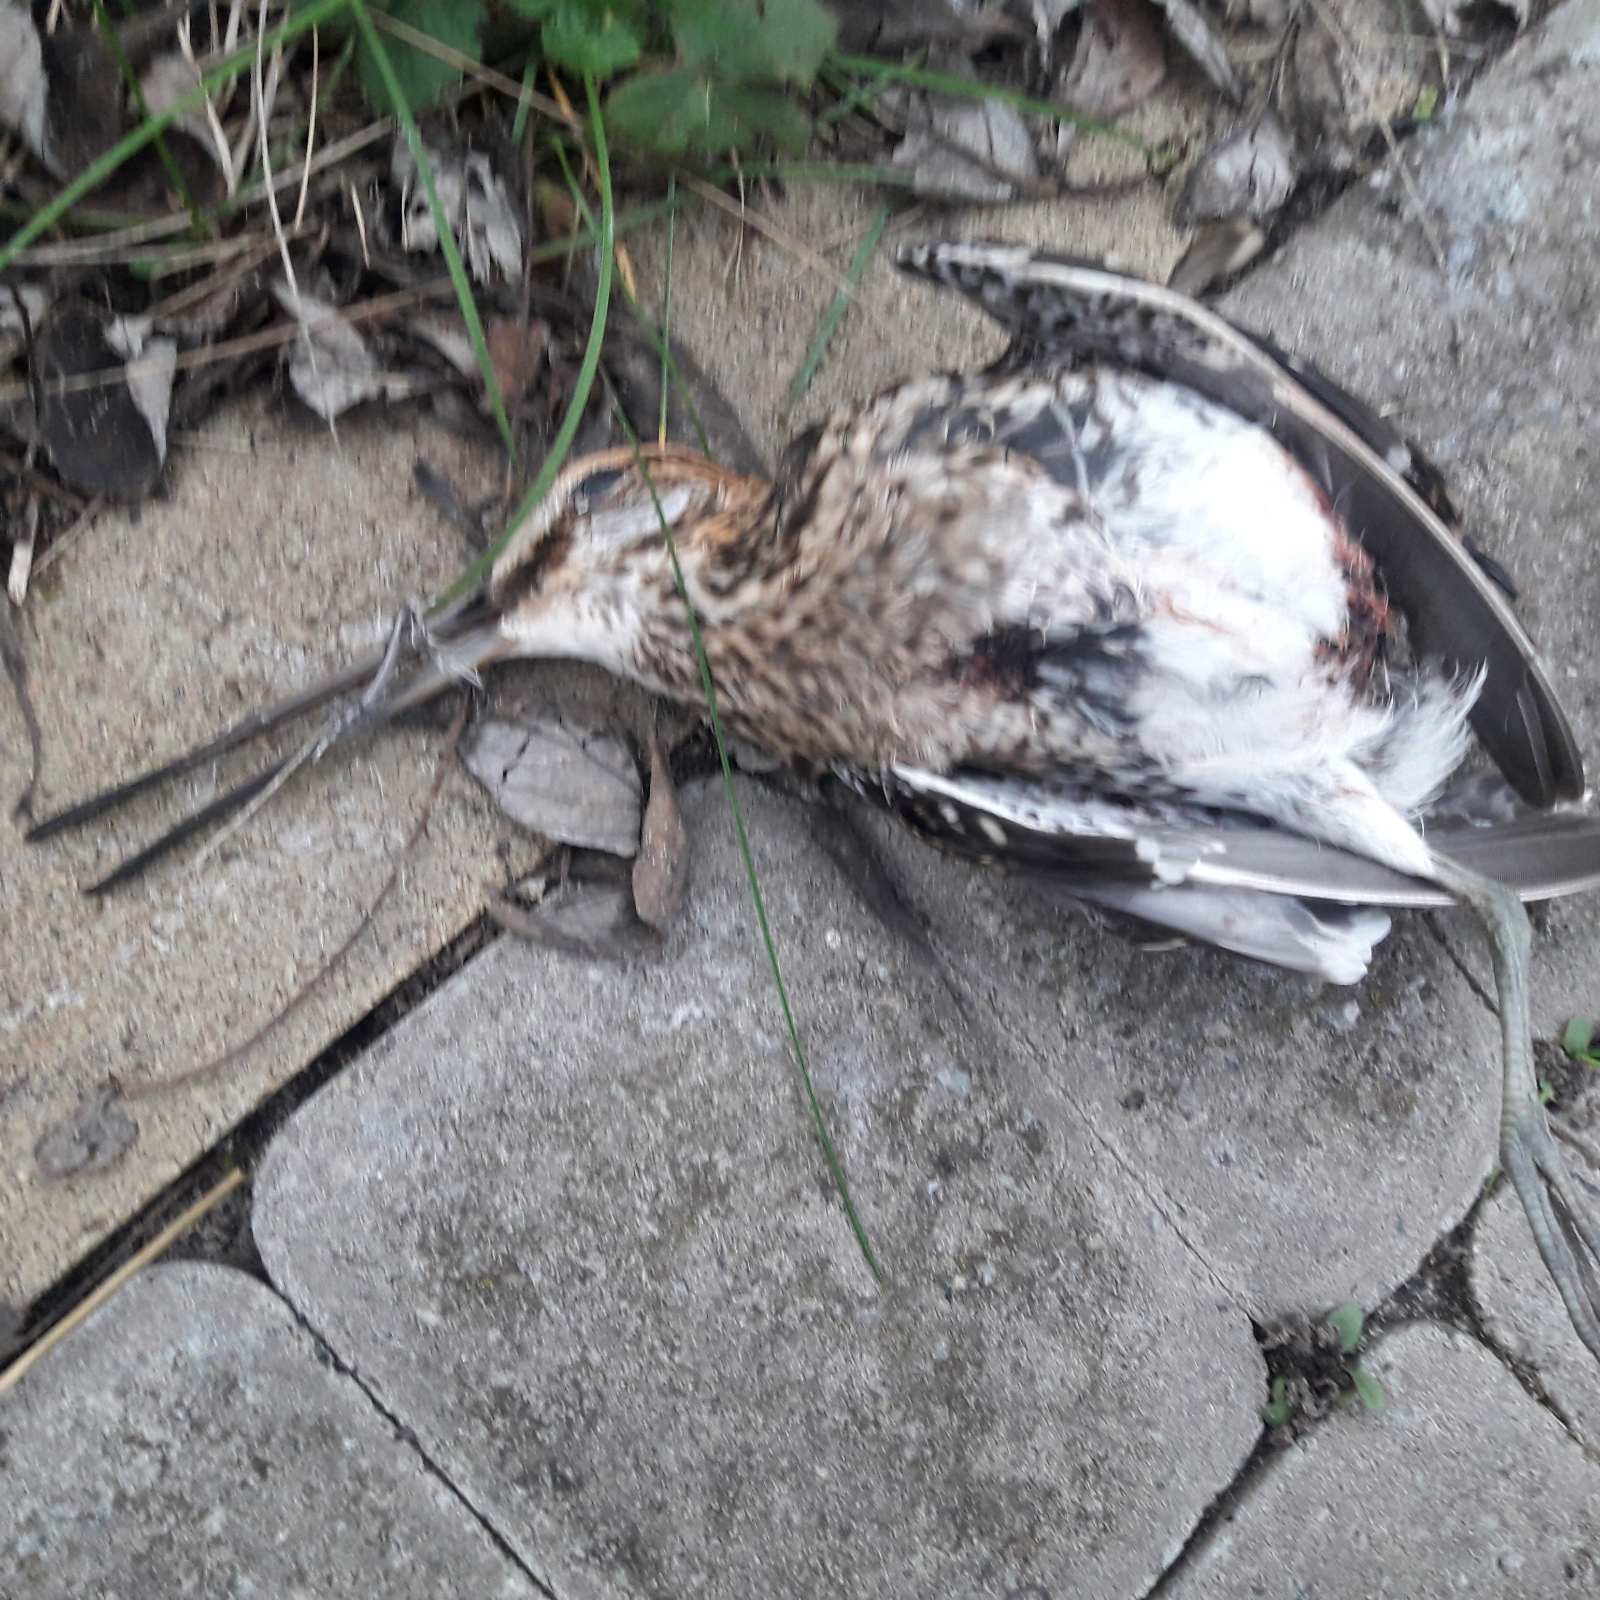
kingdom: Animalia
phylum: Chordata
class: Aves
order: Charadriiformes
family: Scolopacidae
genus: Gallinago
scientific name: Gallinago gallinago
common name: Common snipe
